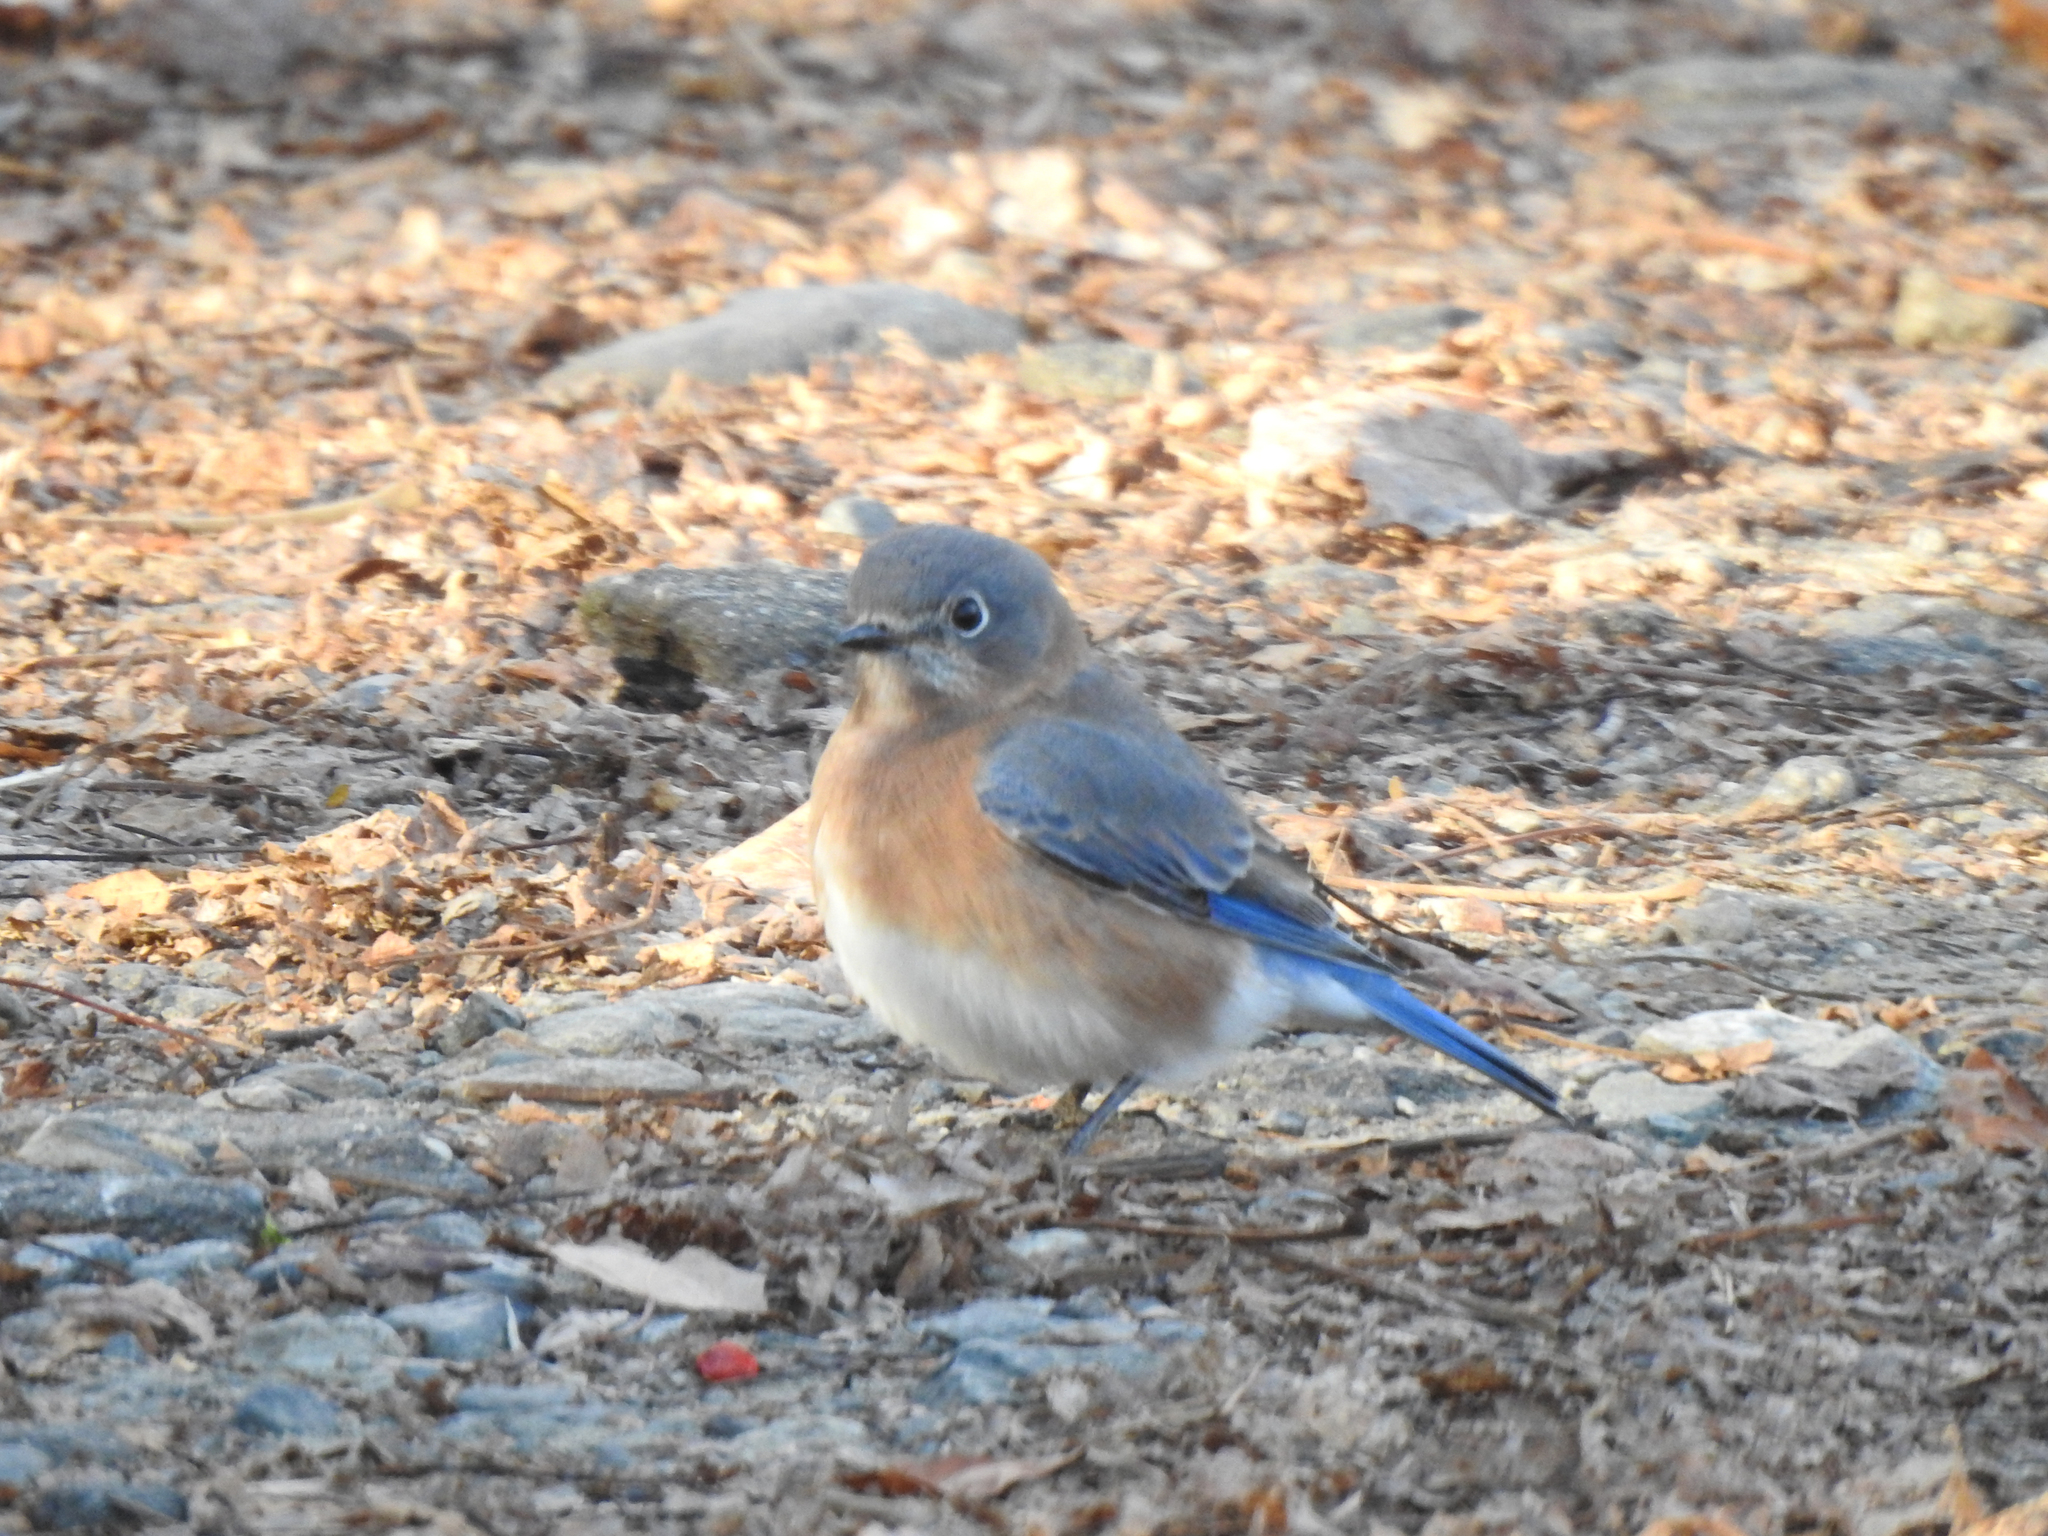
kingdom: Animalia
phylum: Chordata
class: Aves
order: Passeriformes
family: Turdidae
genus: Sialia
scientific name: Sialia sialis
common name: Eastern bluebird
